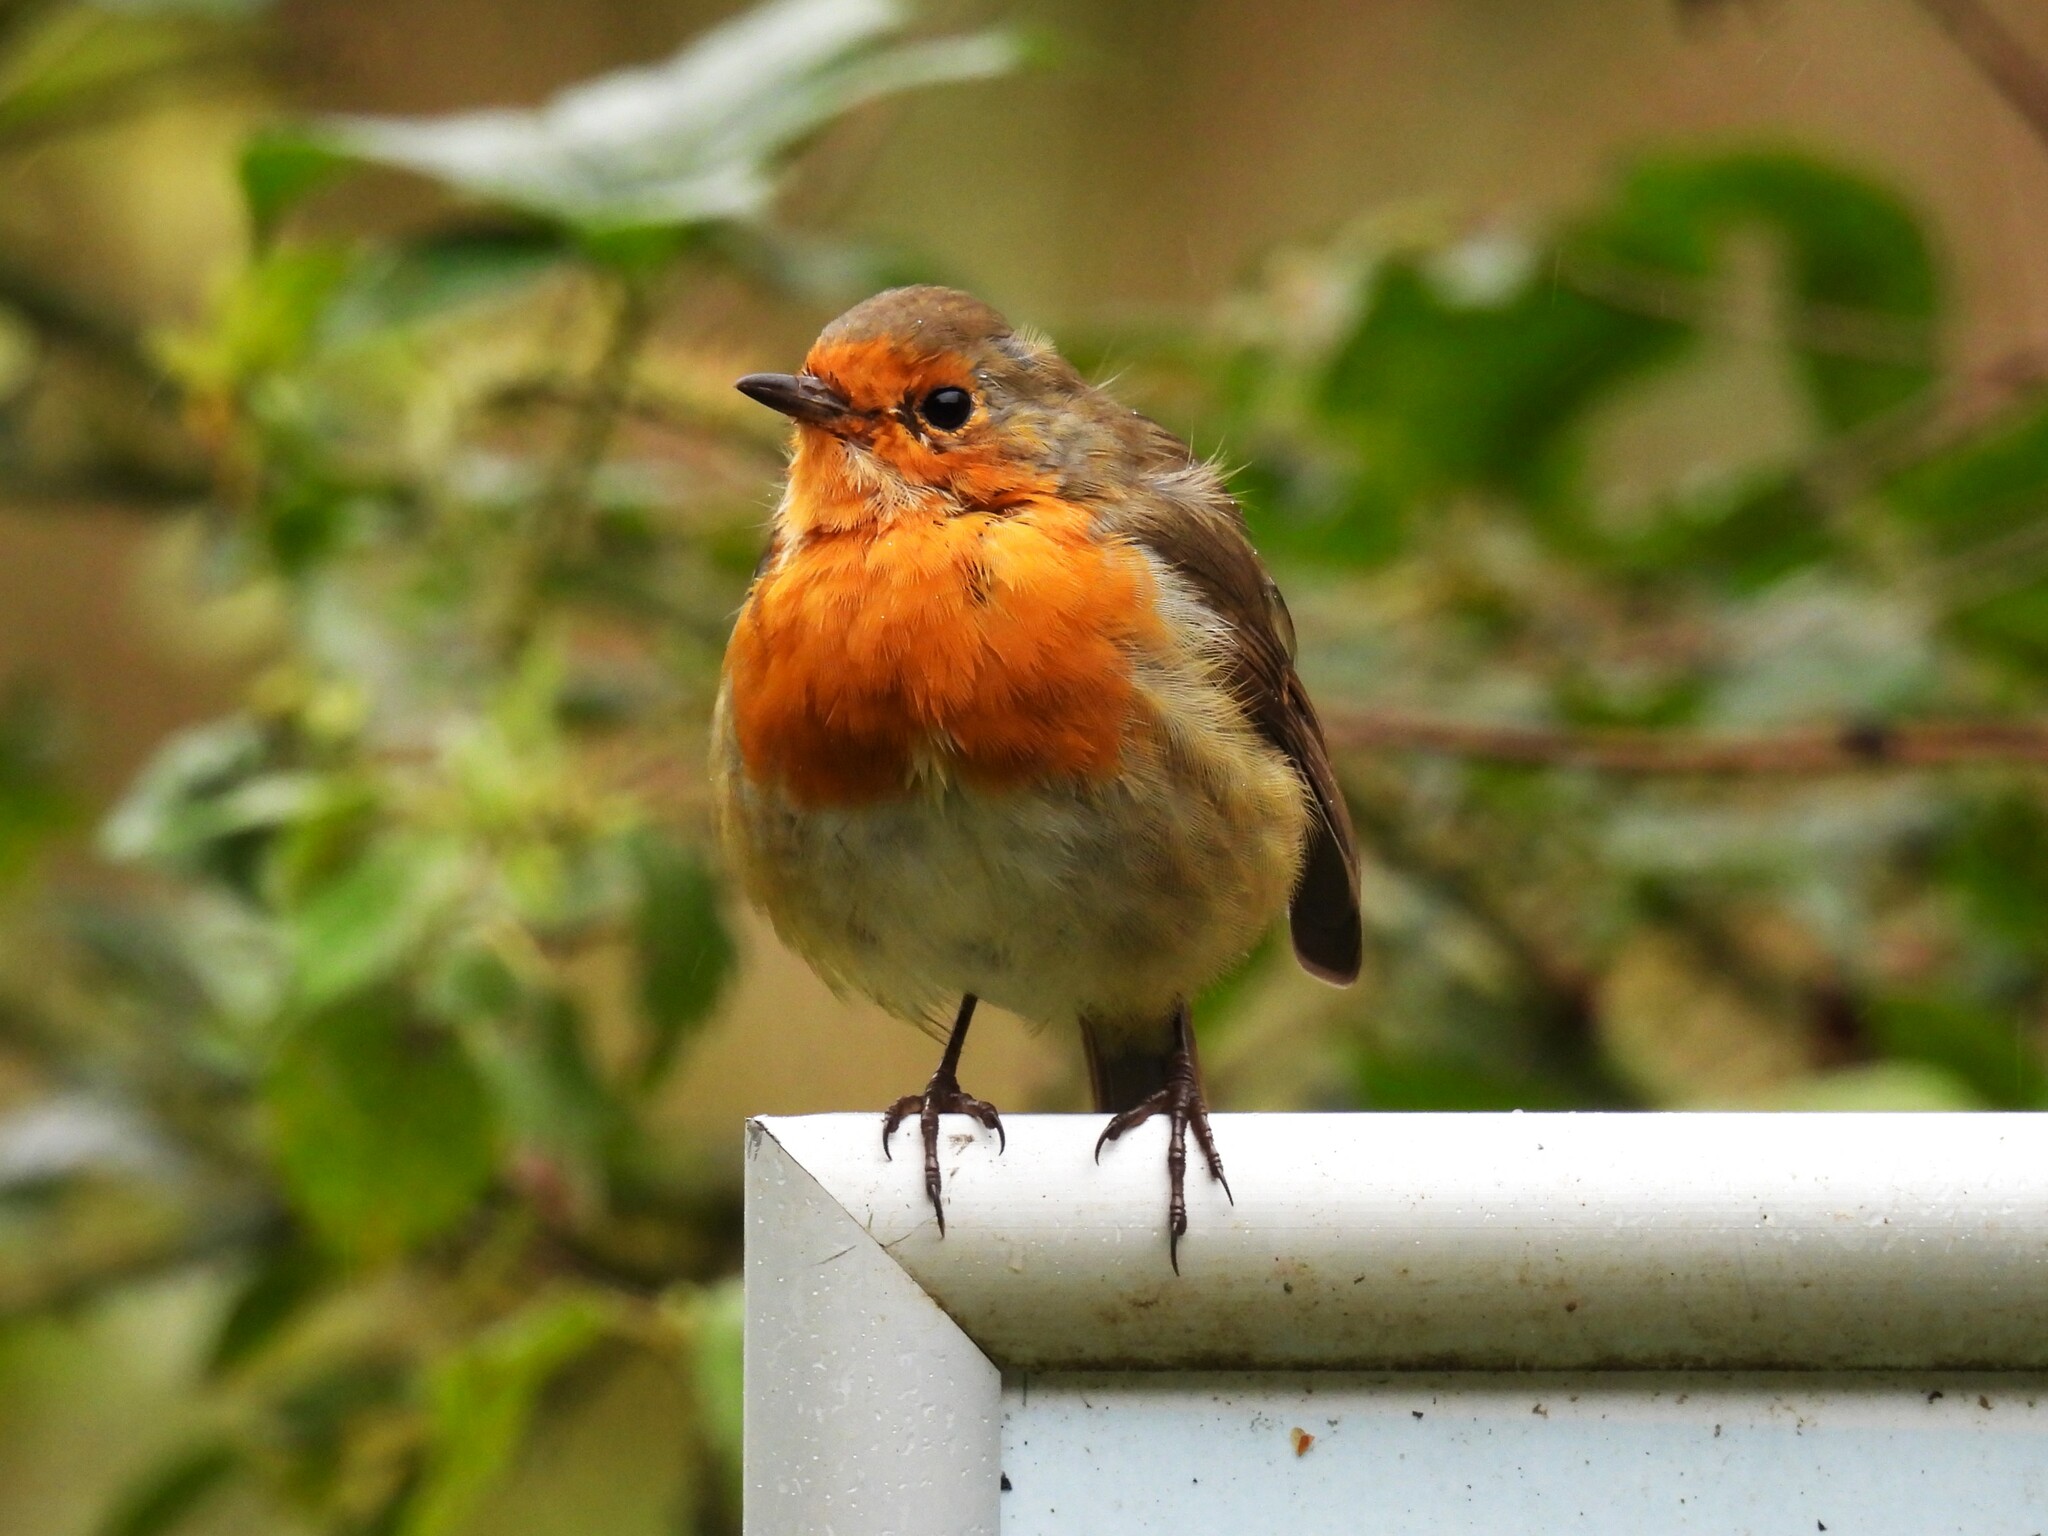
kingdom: Animalia
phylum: Chordata
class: Aves
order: Passeriformes
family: Muscicapidae
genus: Erithacus
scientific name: Erithacus rubecula
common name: European robin
